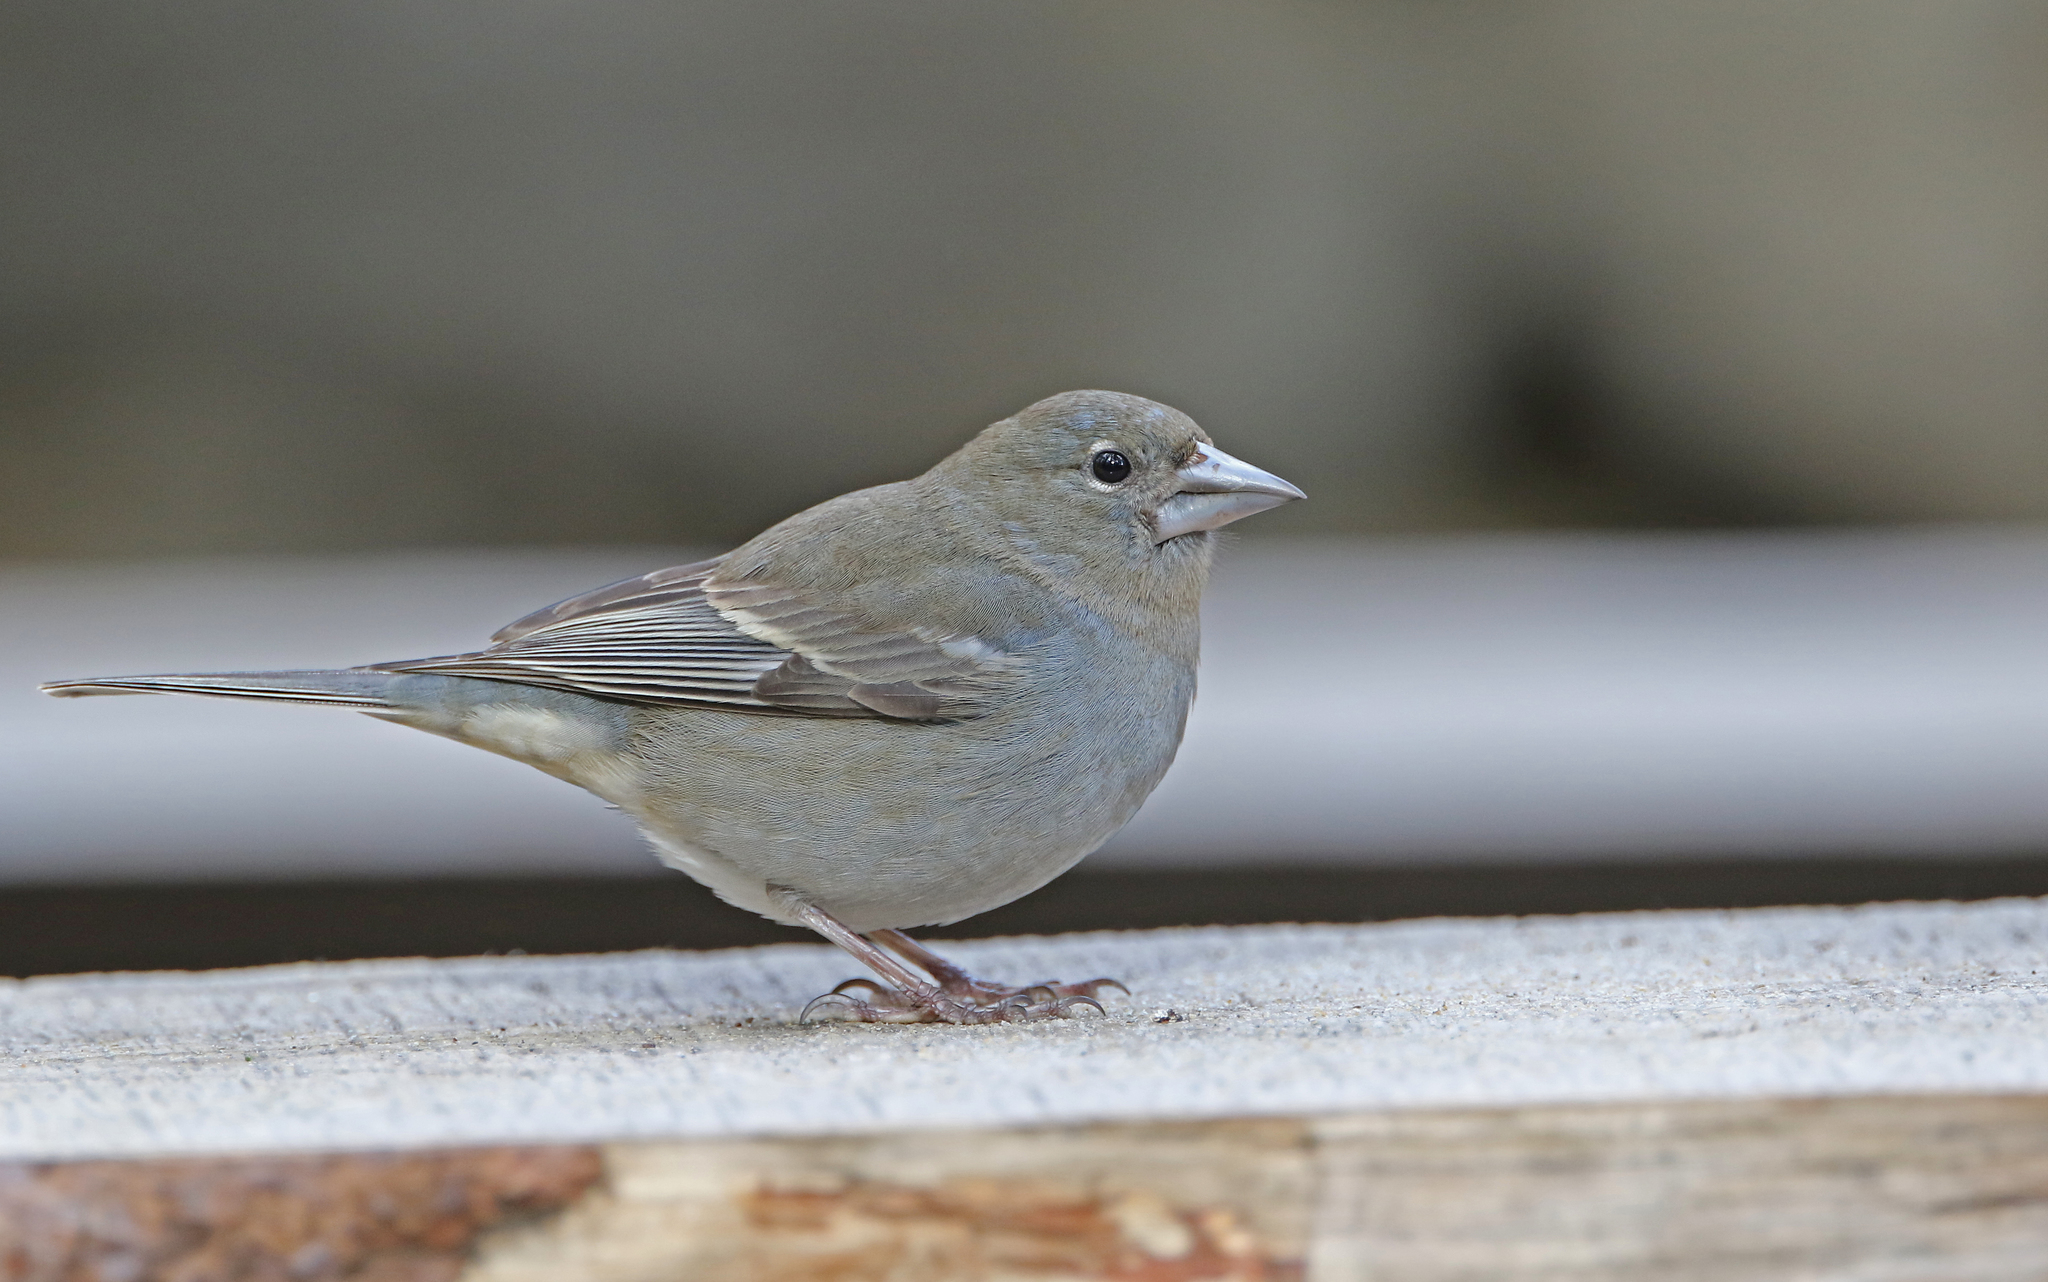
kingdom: Animalia
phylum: Chordata
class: Aves
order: Passeriformes
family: Fringillidae
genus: Fringilla
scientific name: Fringilla teydea
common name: Blue chaffinch
